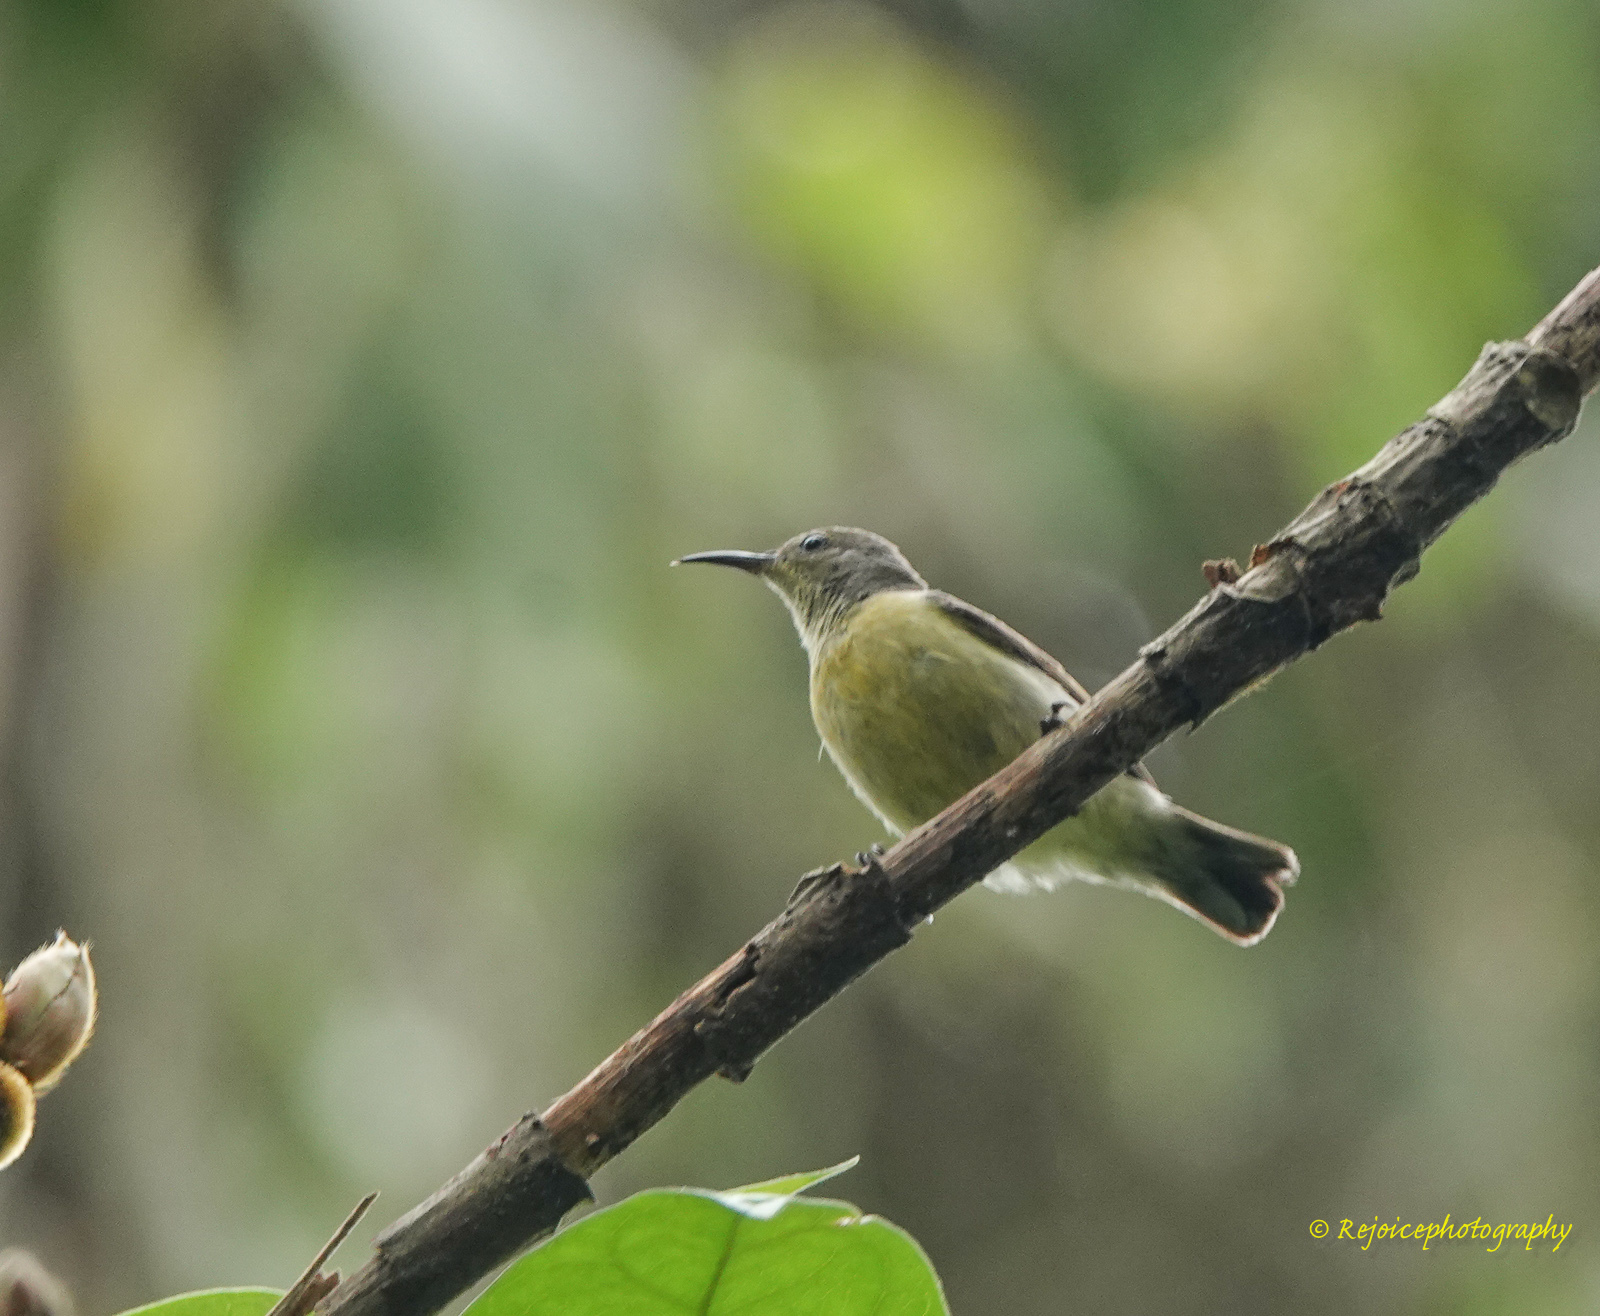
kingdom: Animalia
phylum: Chordata
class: Aves
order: Passeriformes
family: Nectariniidae
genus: Leptocoma
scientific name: Leptocoma brasiliana
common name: Van hasselt's sunbird
